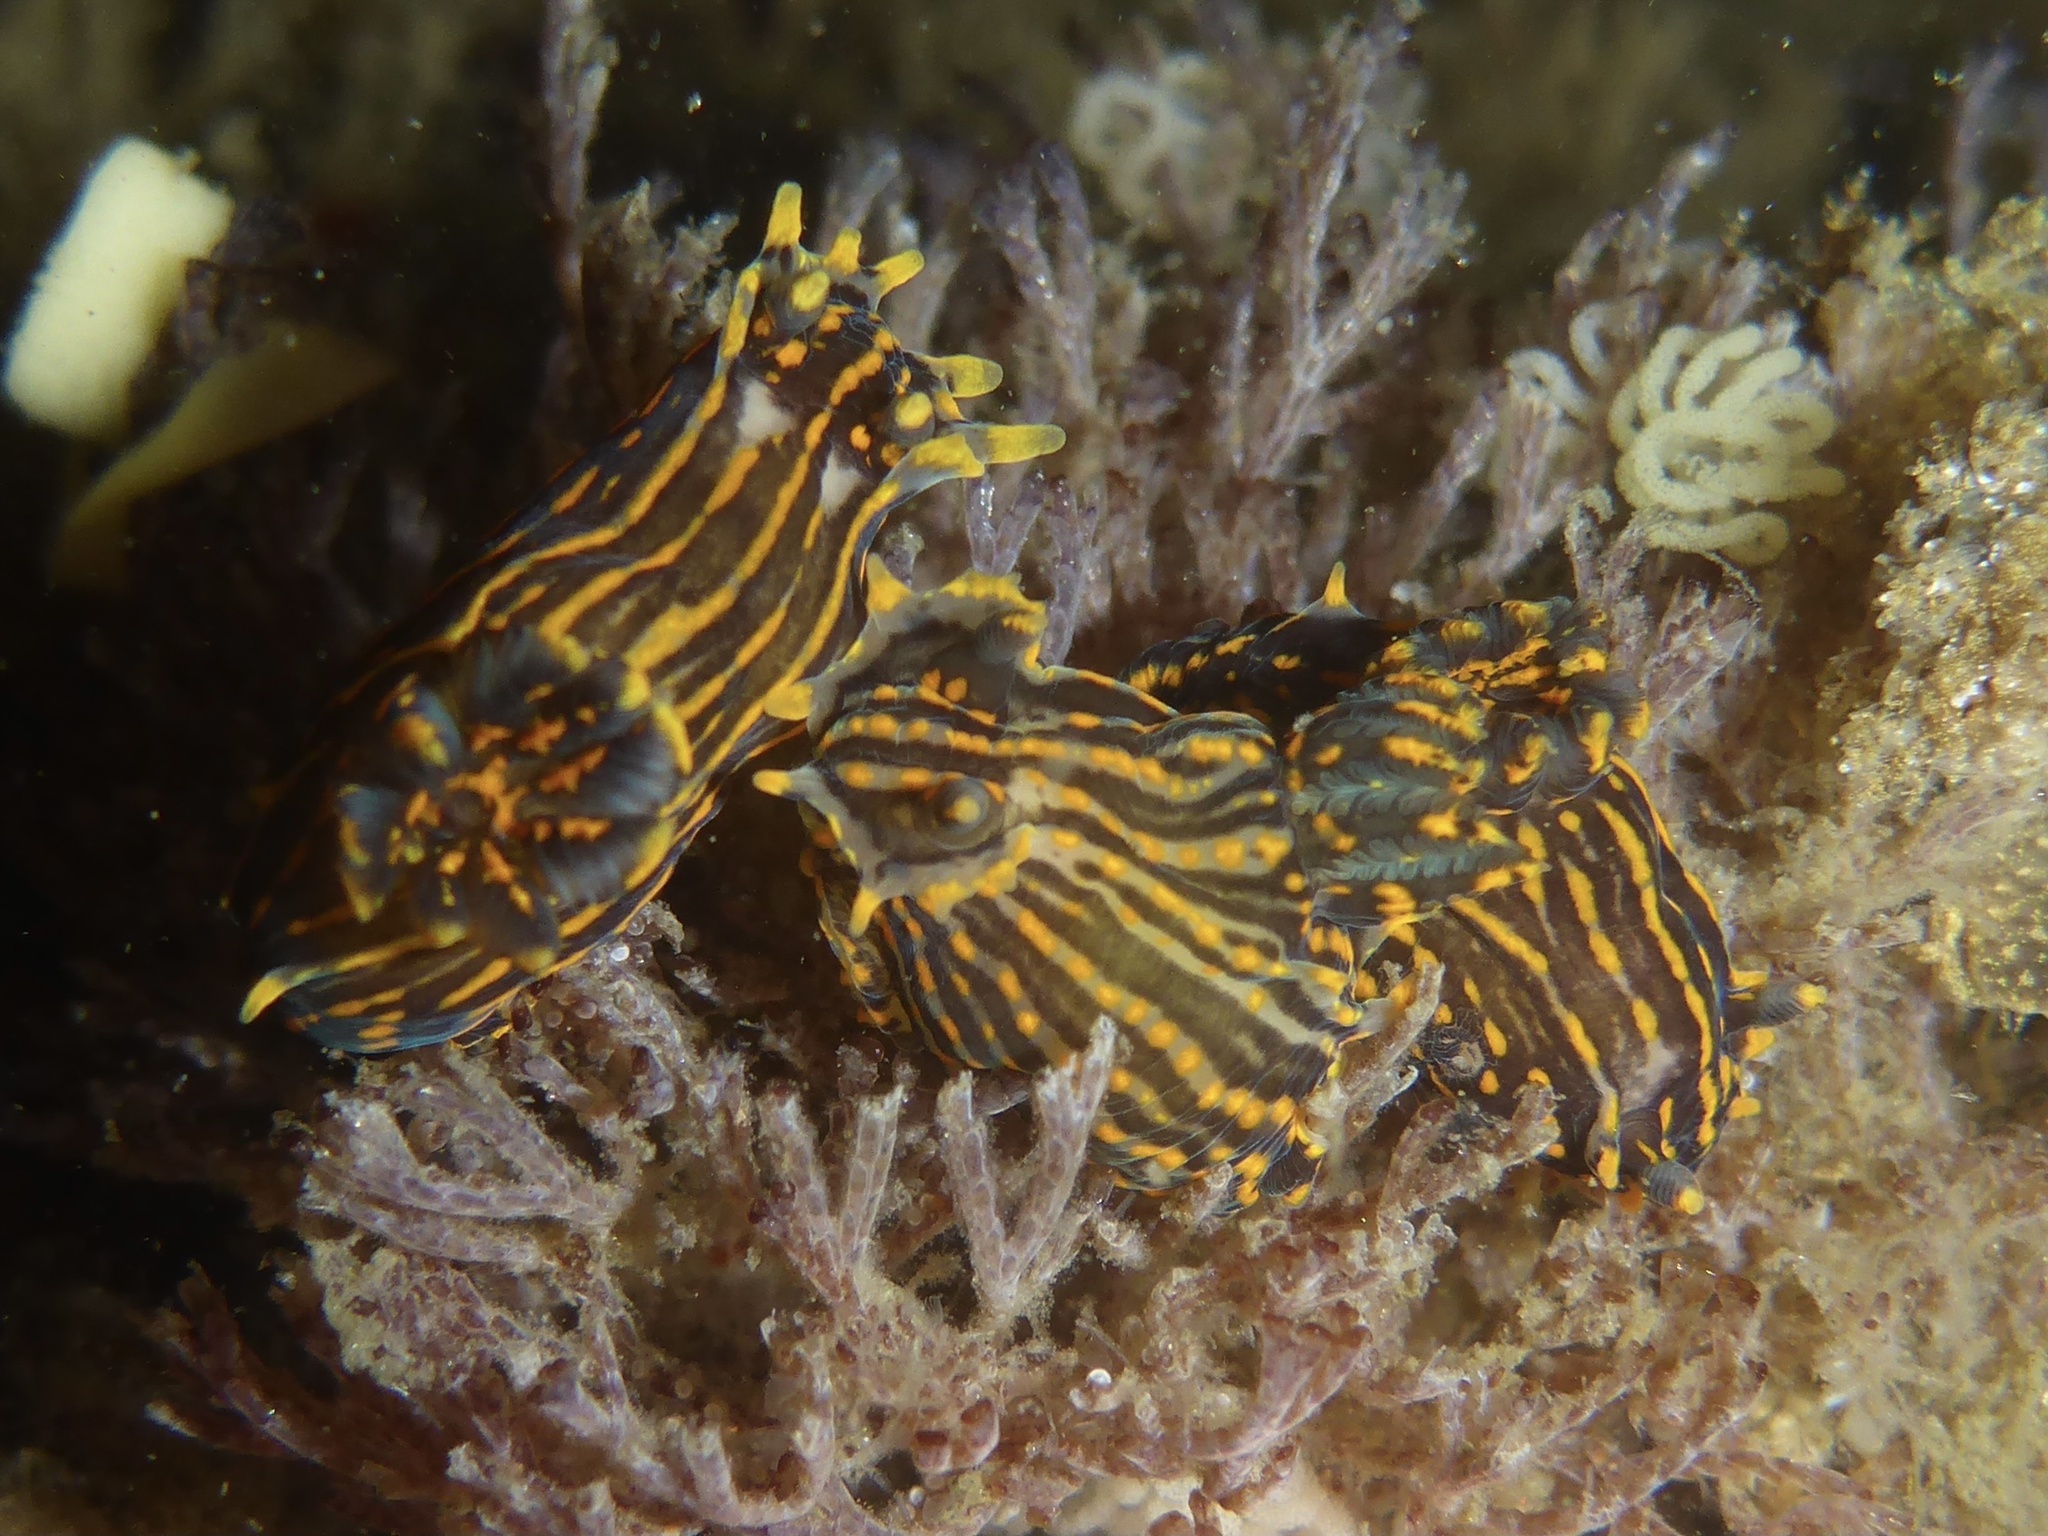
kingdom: Animalia
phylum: Mollusca
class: Gastropoda
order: Nudibranchia
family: Polyceridae
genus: Polycera
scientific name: Polycera atra
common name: Orange-spike polycera
